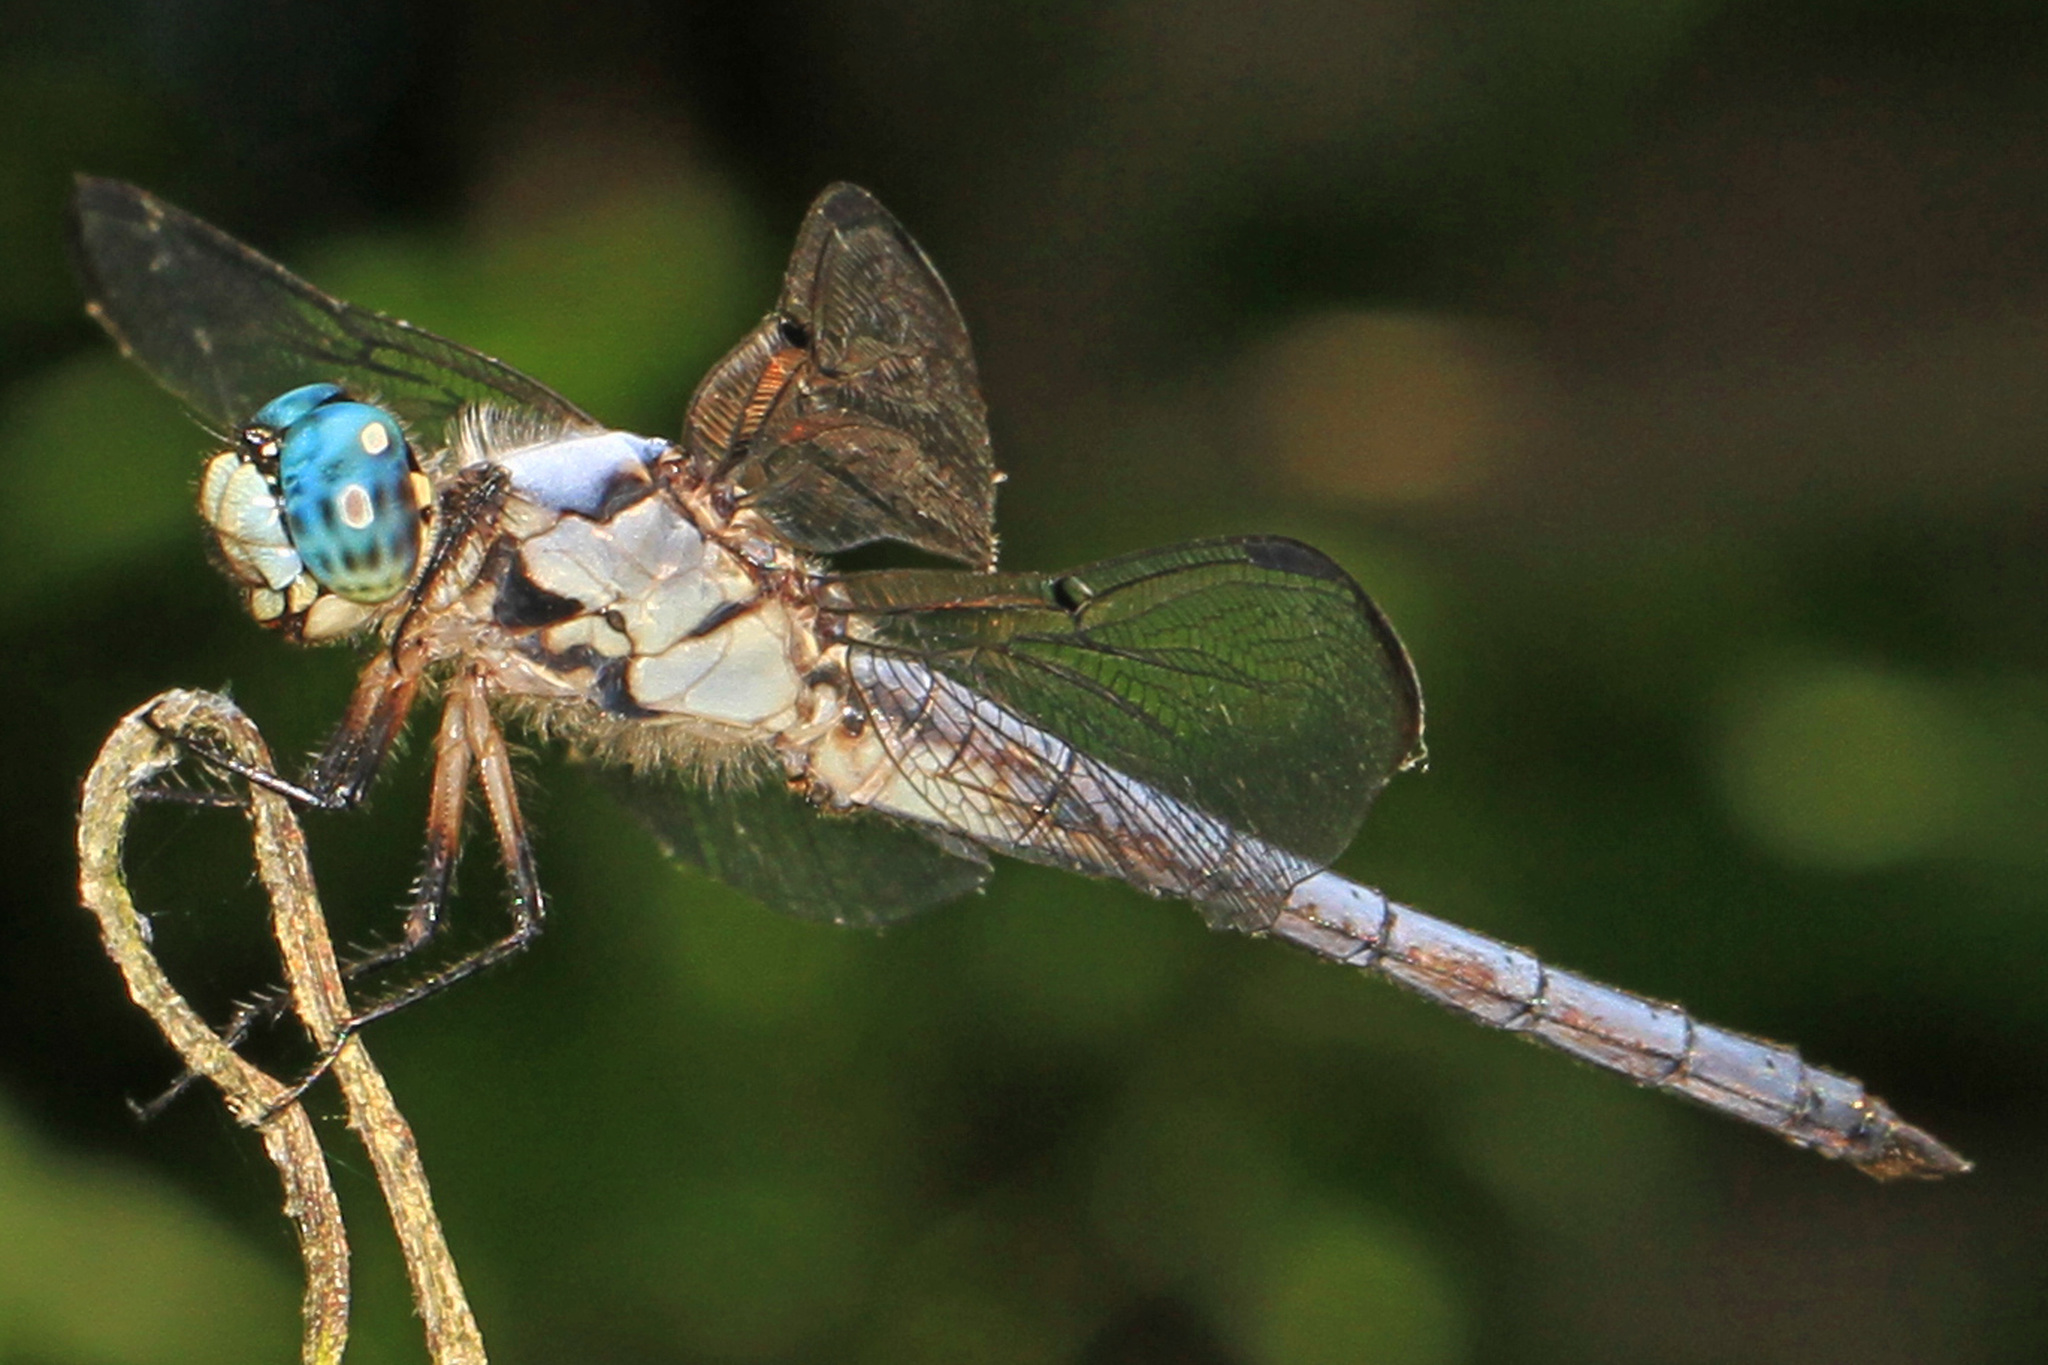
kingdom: Animalia
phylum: Arthropoda
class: Insecta
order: Odonata
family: Libellulidae
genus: Libellula
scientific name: Libellula vibrans
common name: Great blue skimmer
